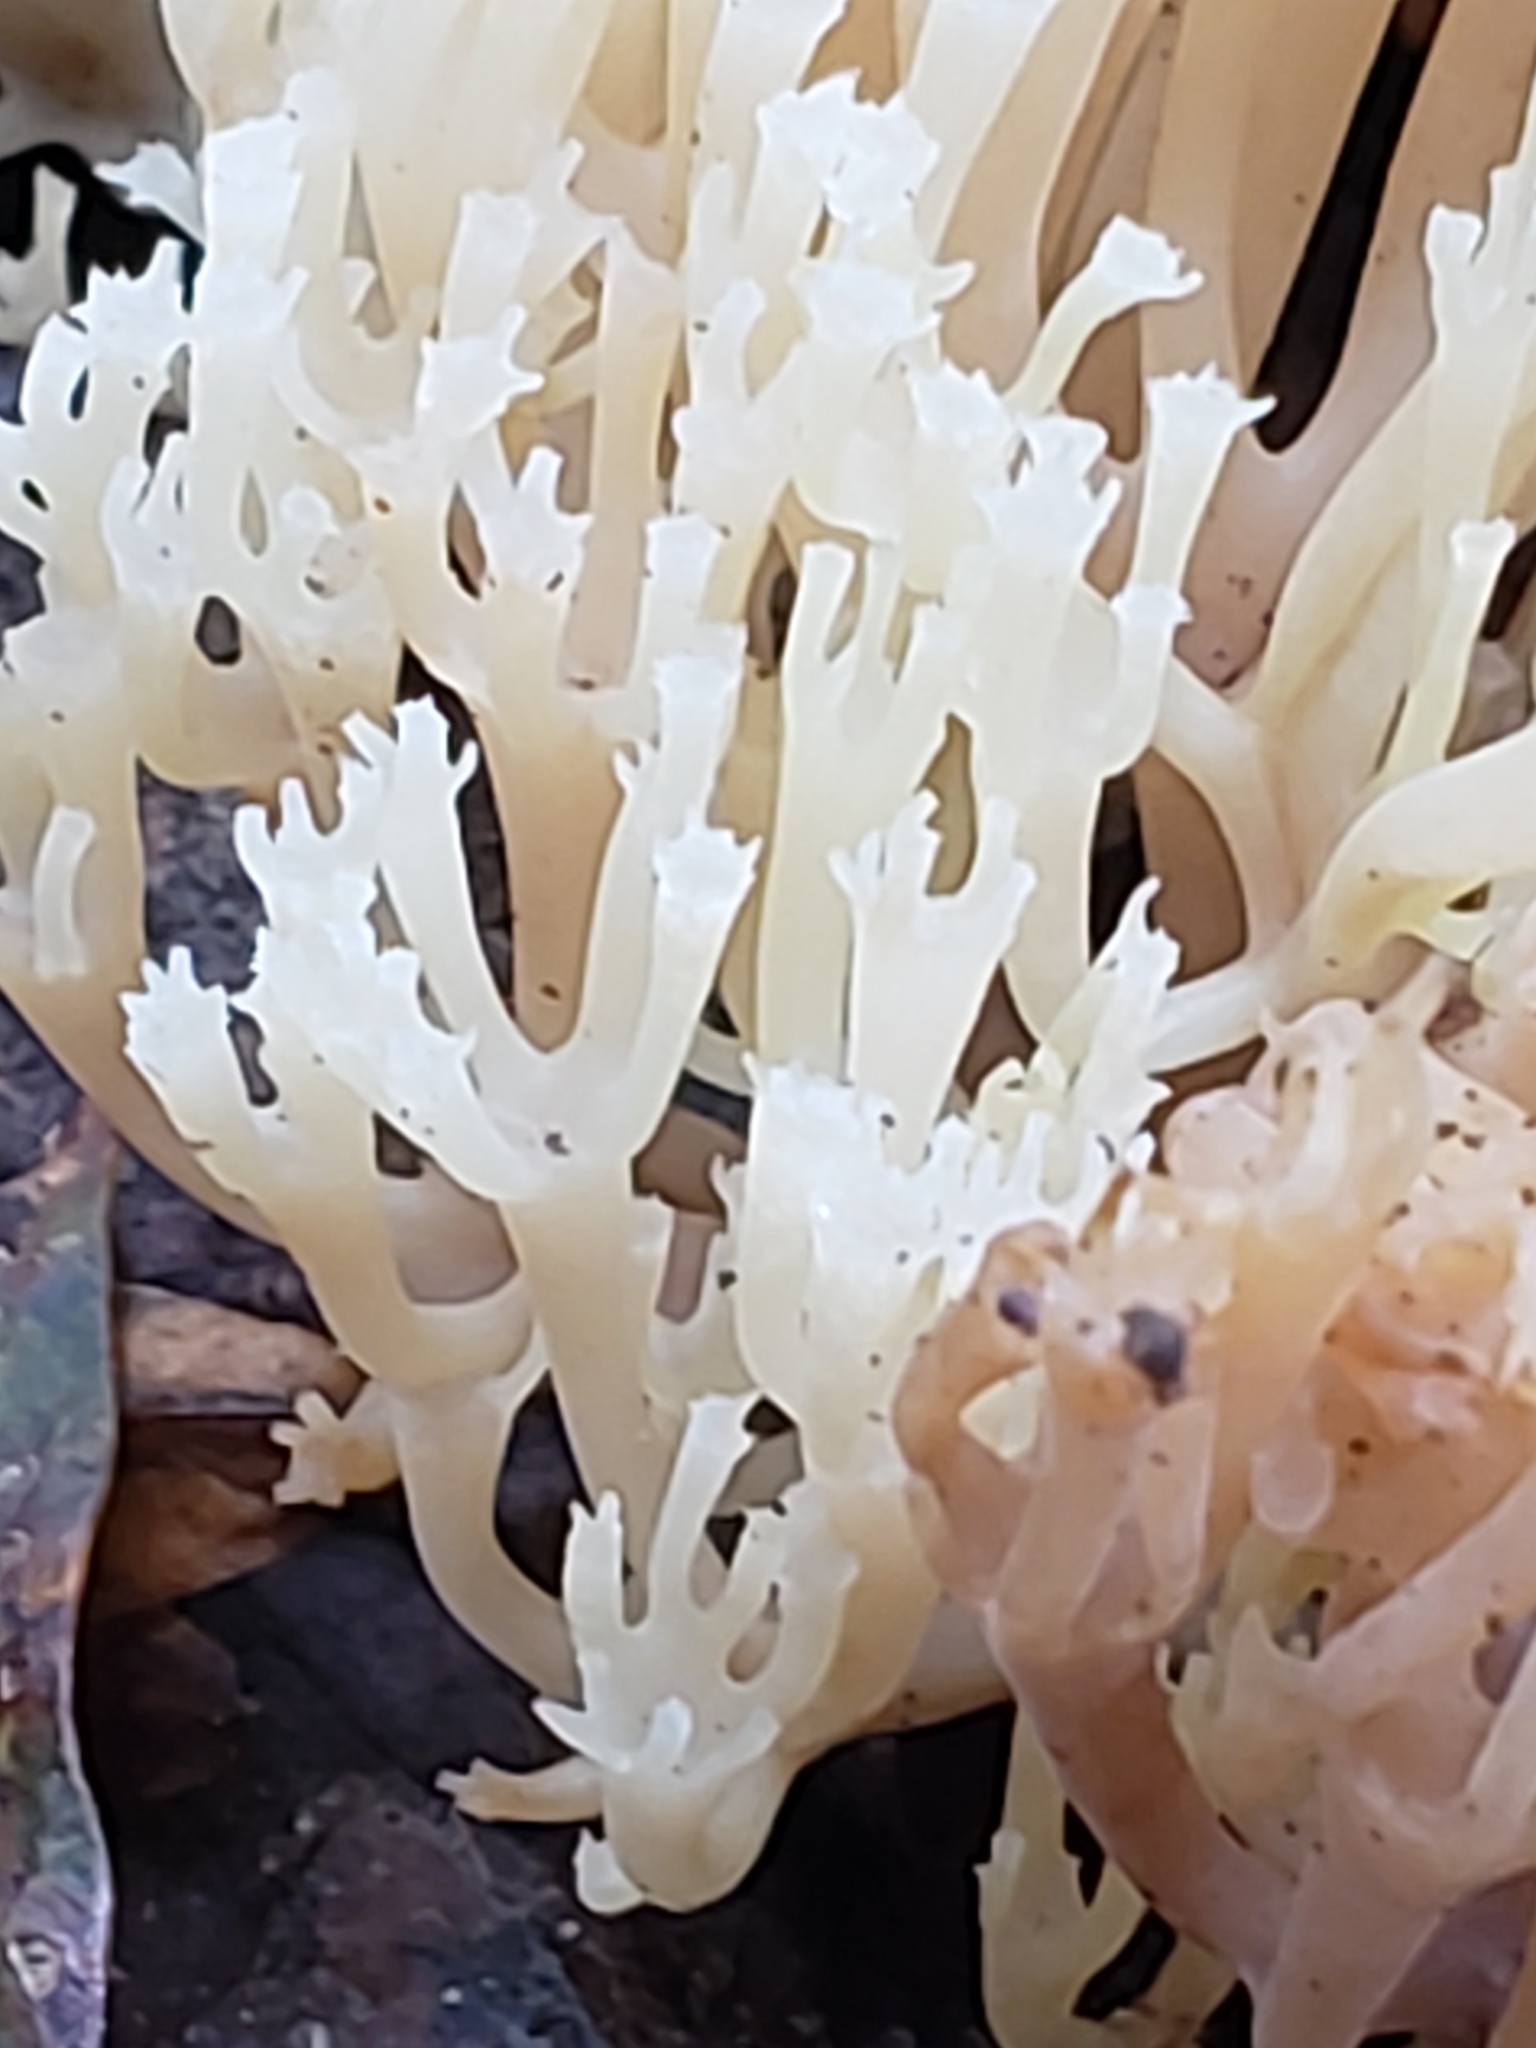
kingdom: Fungi
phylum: Basidiomycota
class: Agaricomycetes
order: Russulales
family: Auriscalpiaceae
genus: Artomyces
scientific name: Artomyces pyxidatus
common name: Crown-tipped coral fungus
